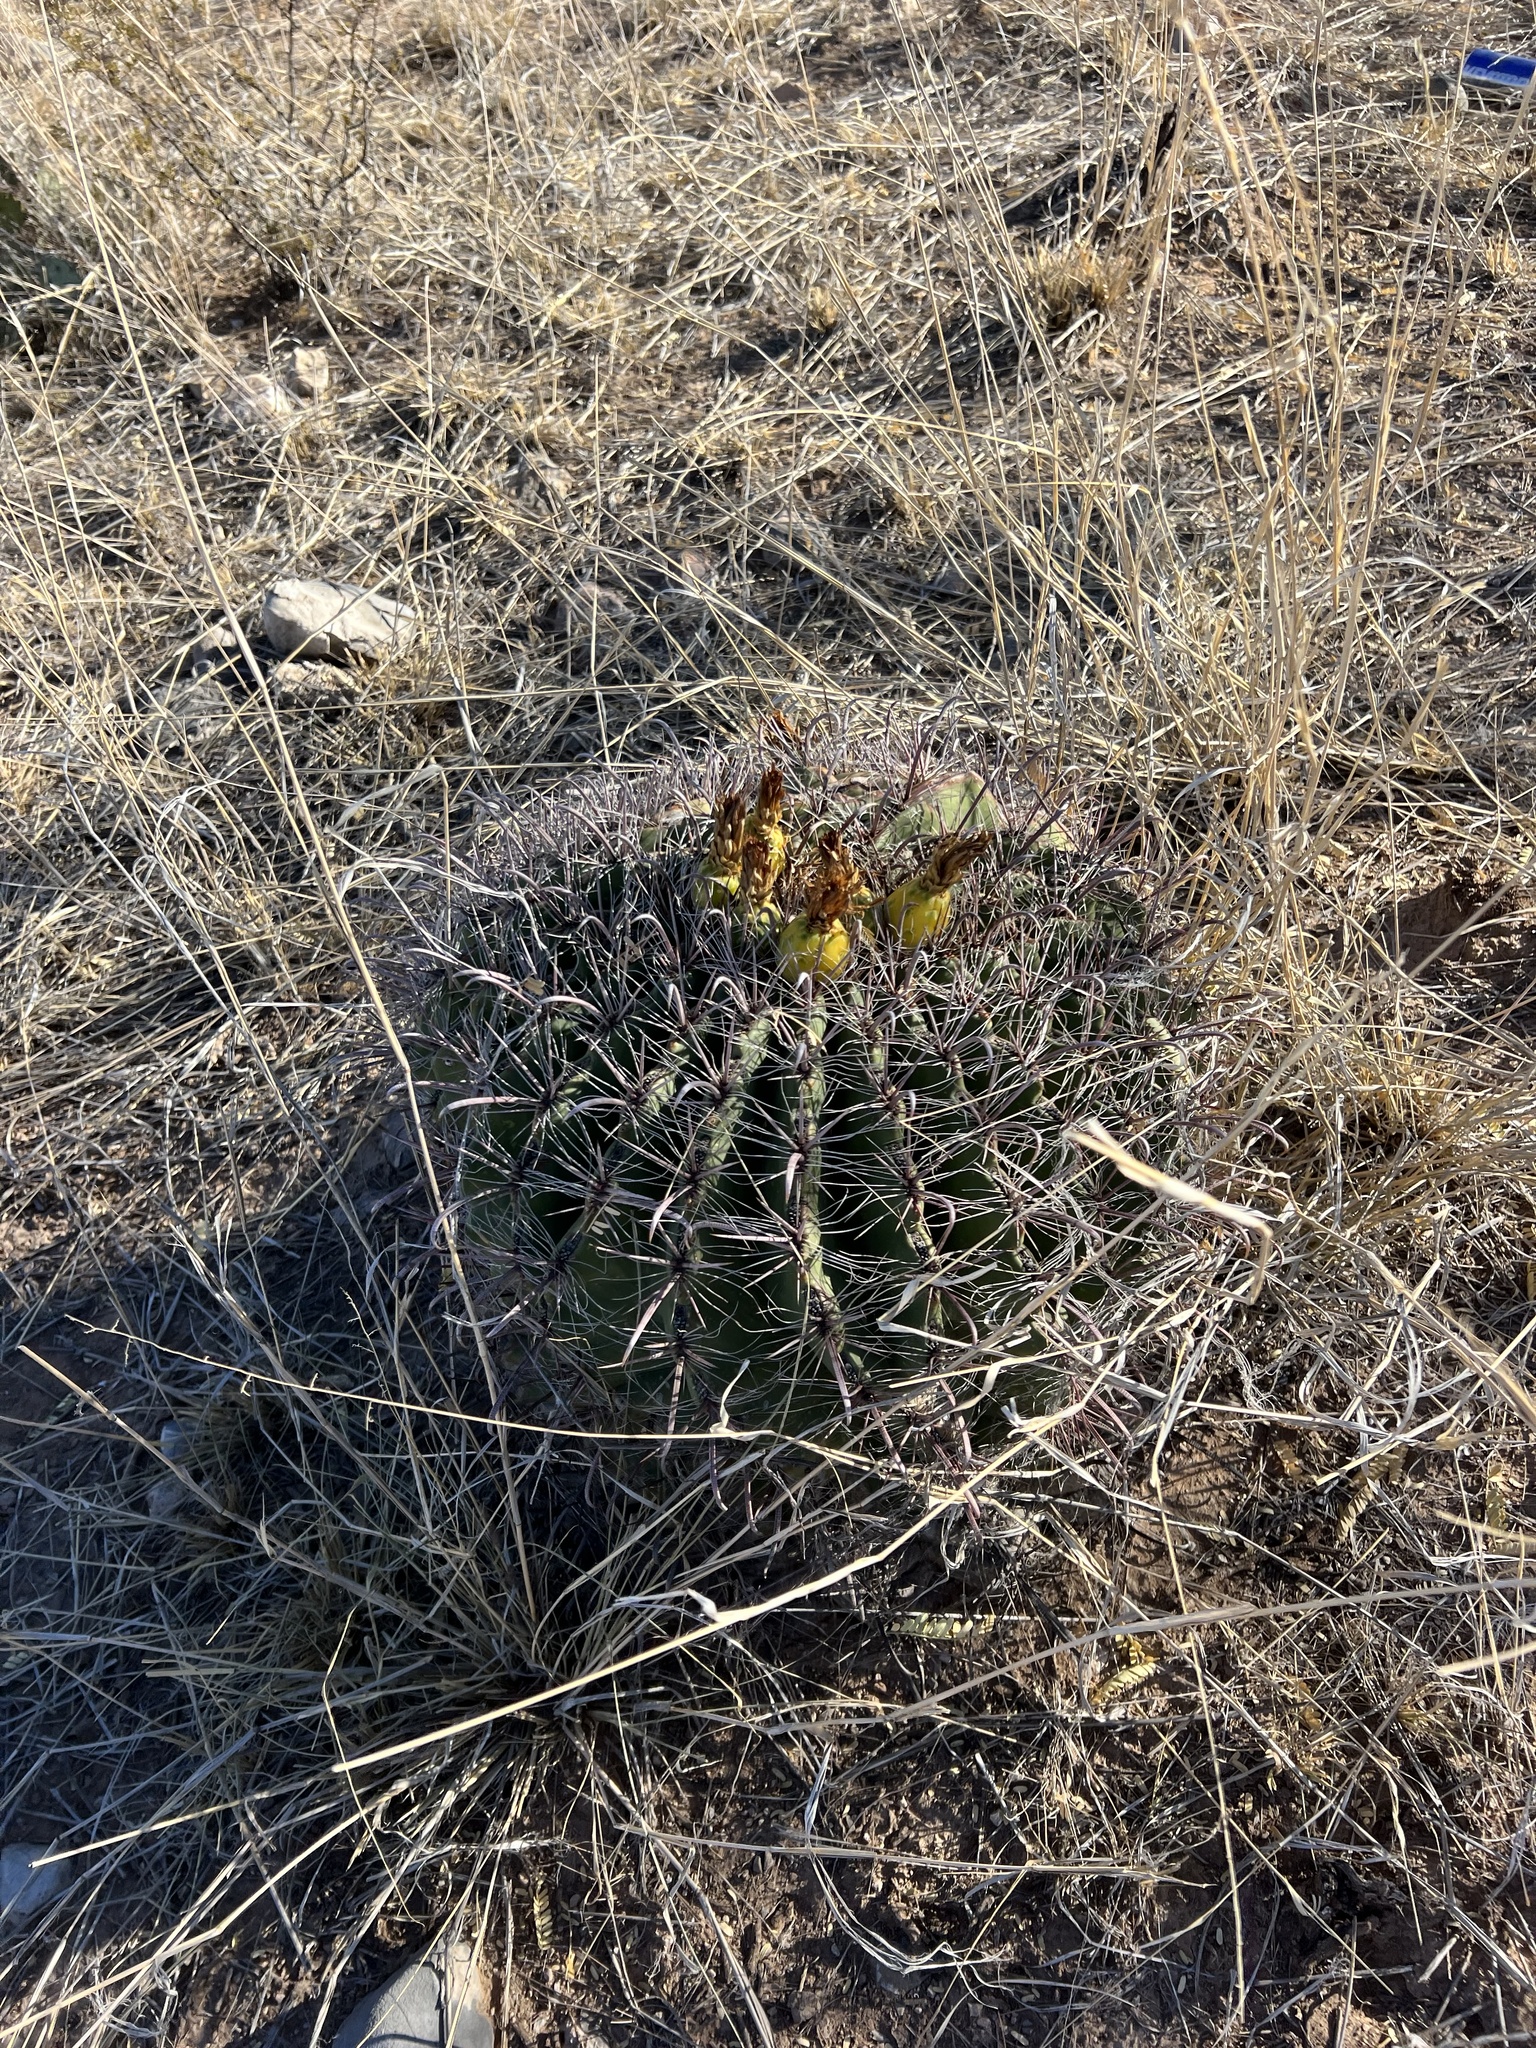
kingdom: Plantae
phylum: Tracheophyta
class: Magnoliopsida
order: Caryophyllales
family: Cactaceae
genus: Ferocactus
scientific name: Ferocactus wislizeni
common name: Candy barrel cactus
